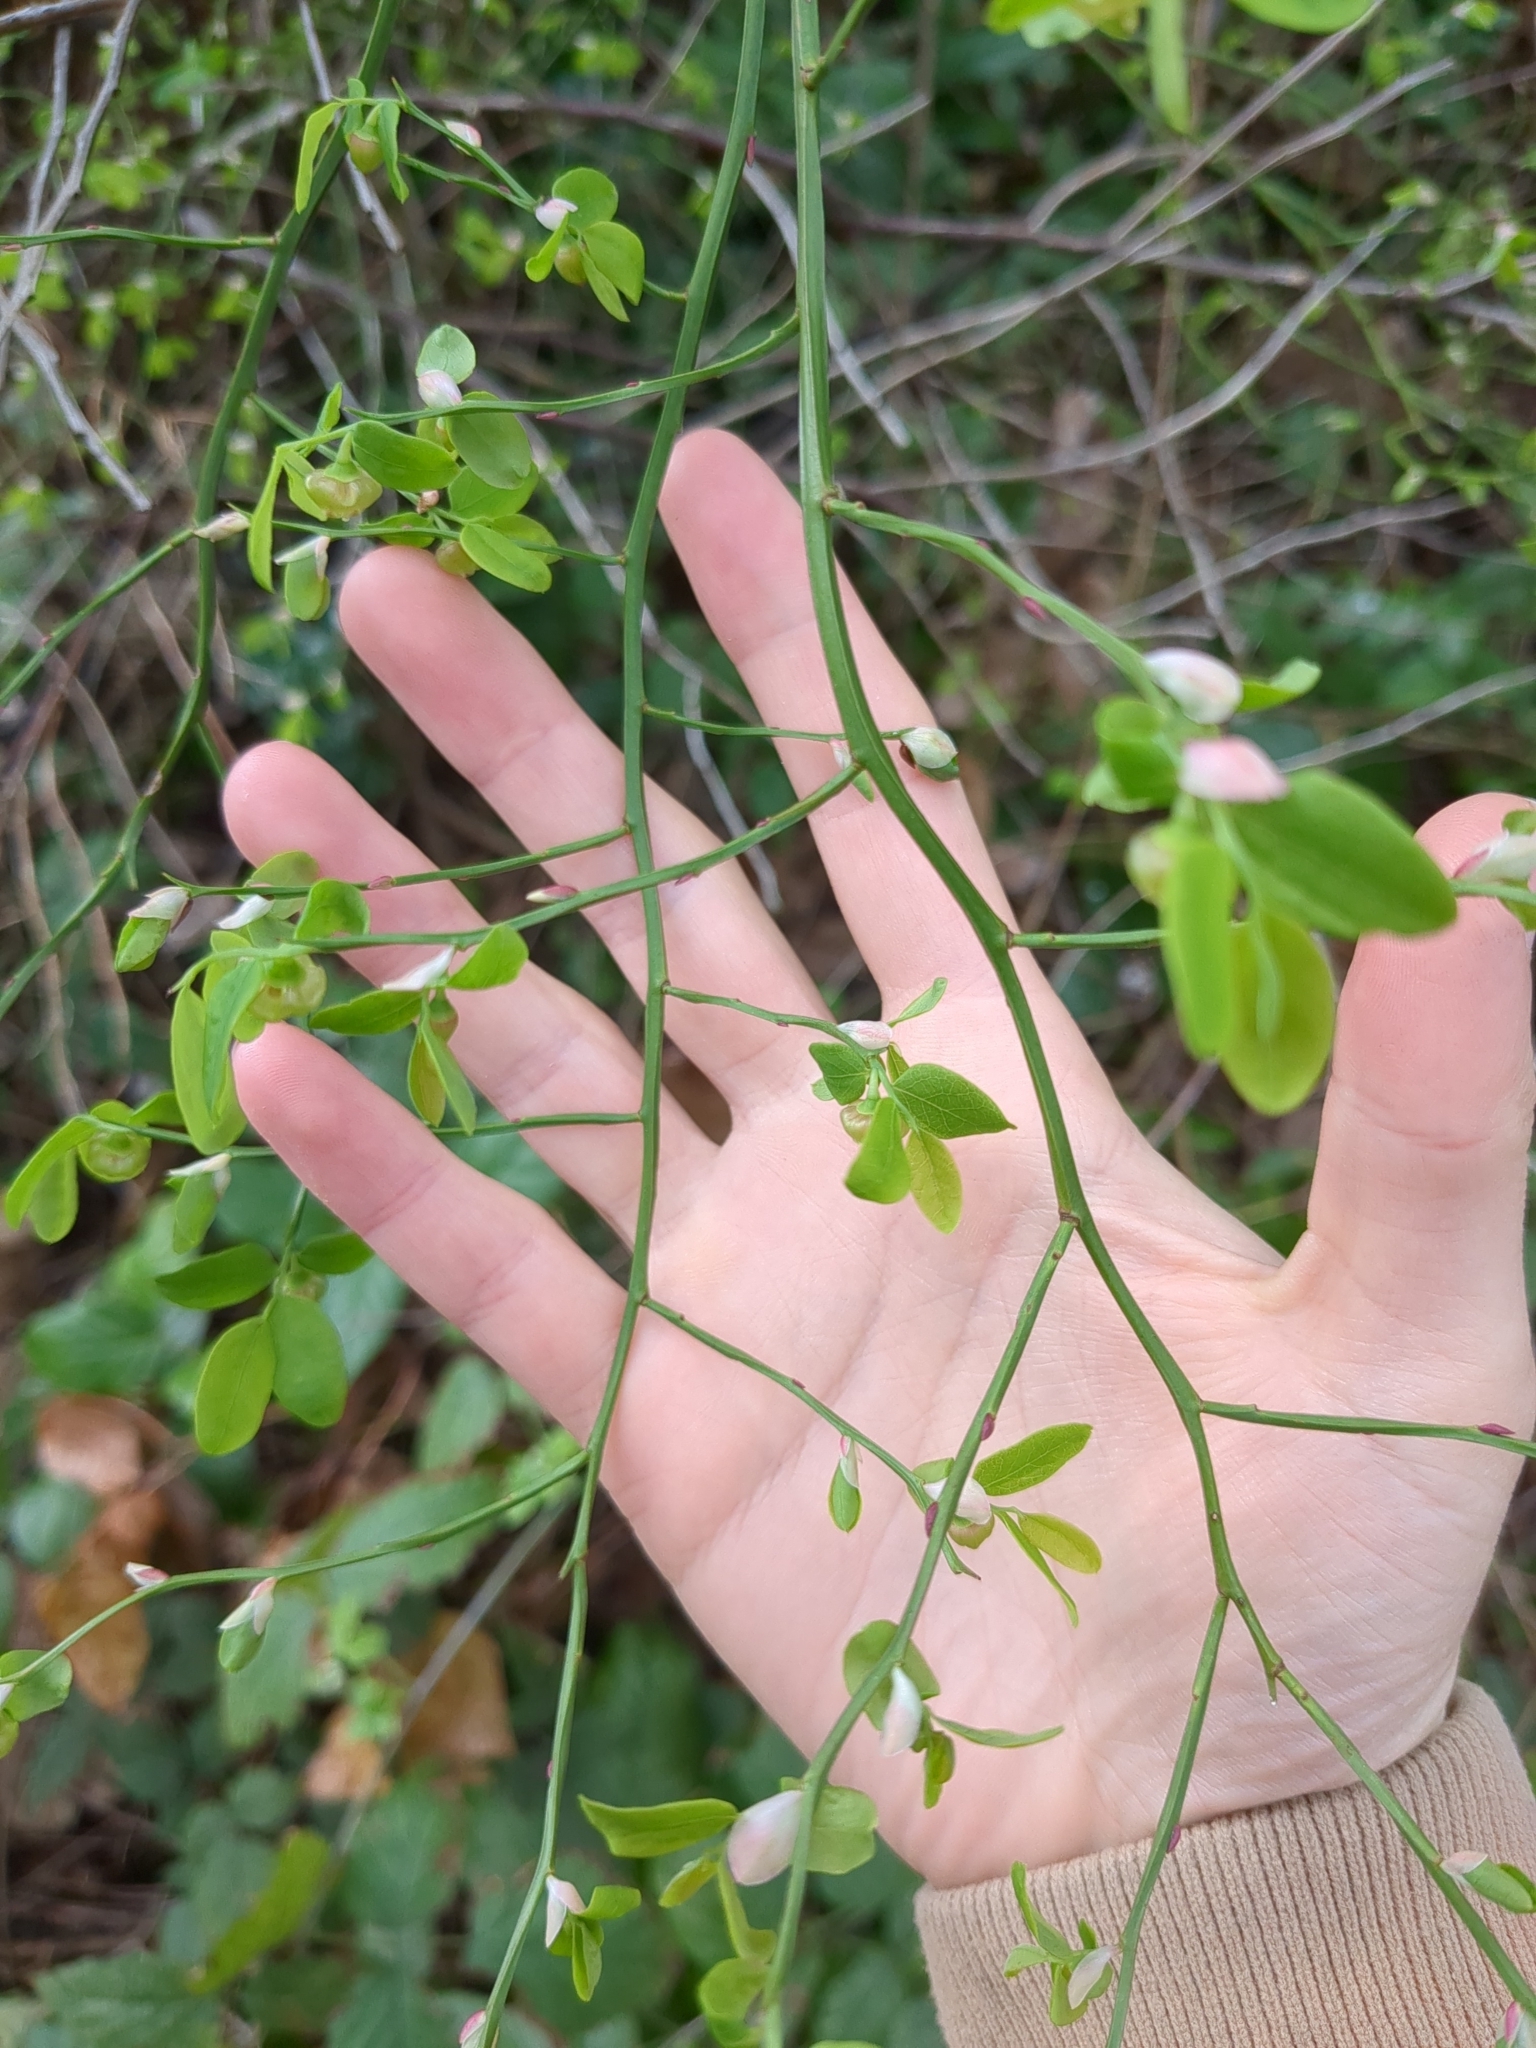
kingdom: Plantae
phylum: Tracheophyta
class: Magnoliopsida
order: Ericales
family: Ericaceae
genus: Vaccinium
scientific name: Vaccinium parvifolium
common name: Red-huckleberry
